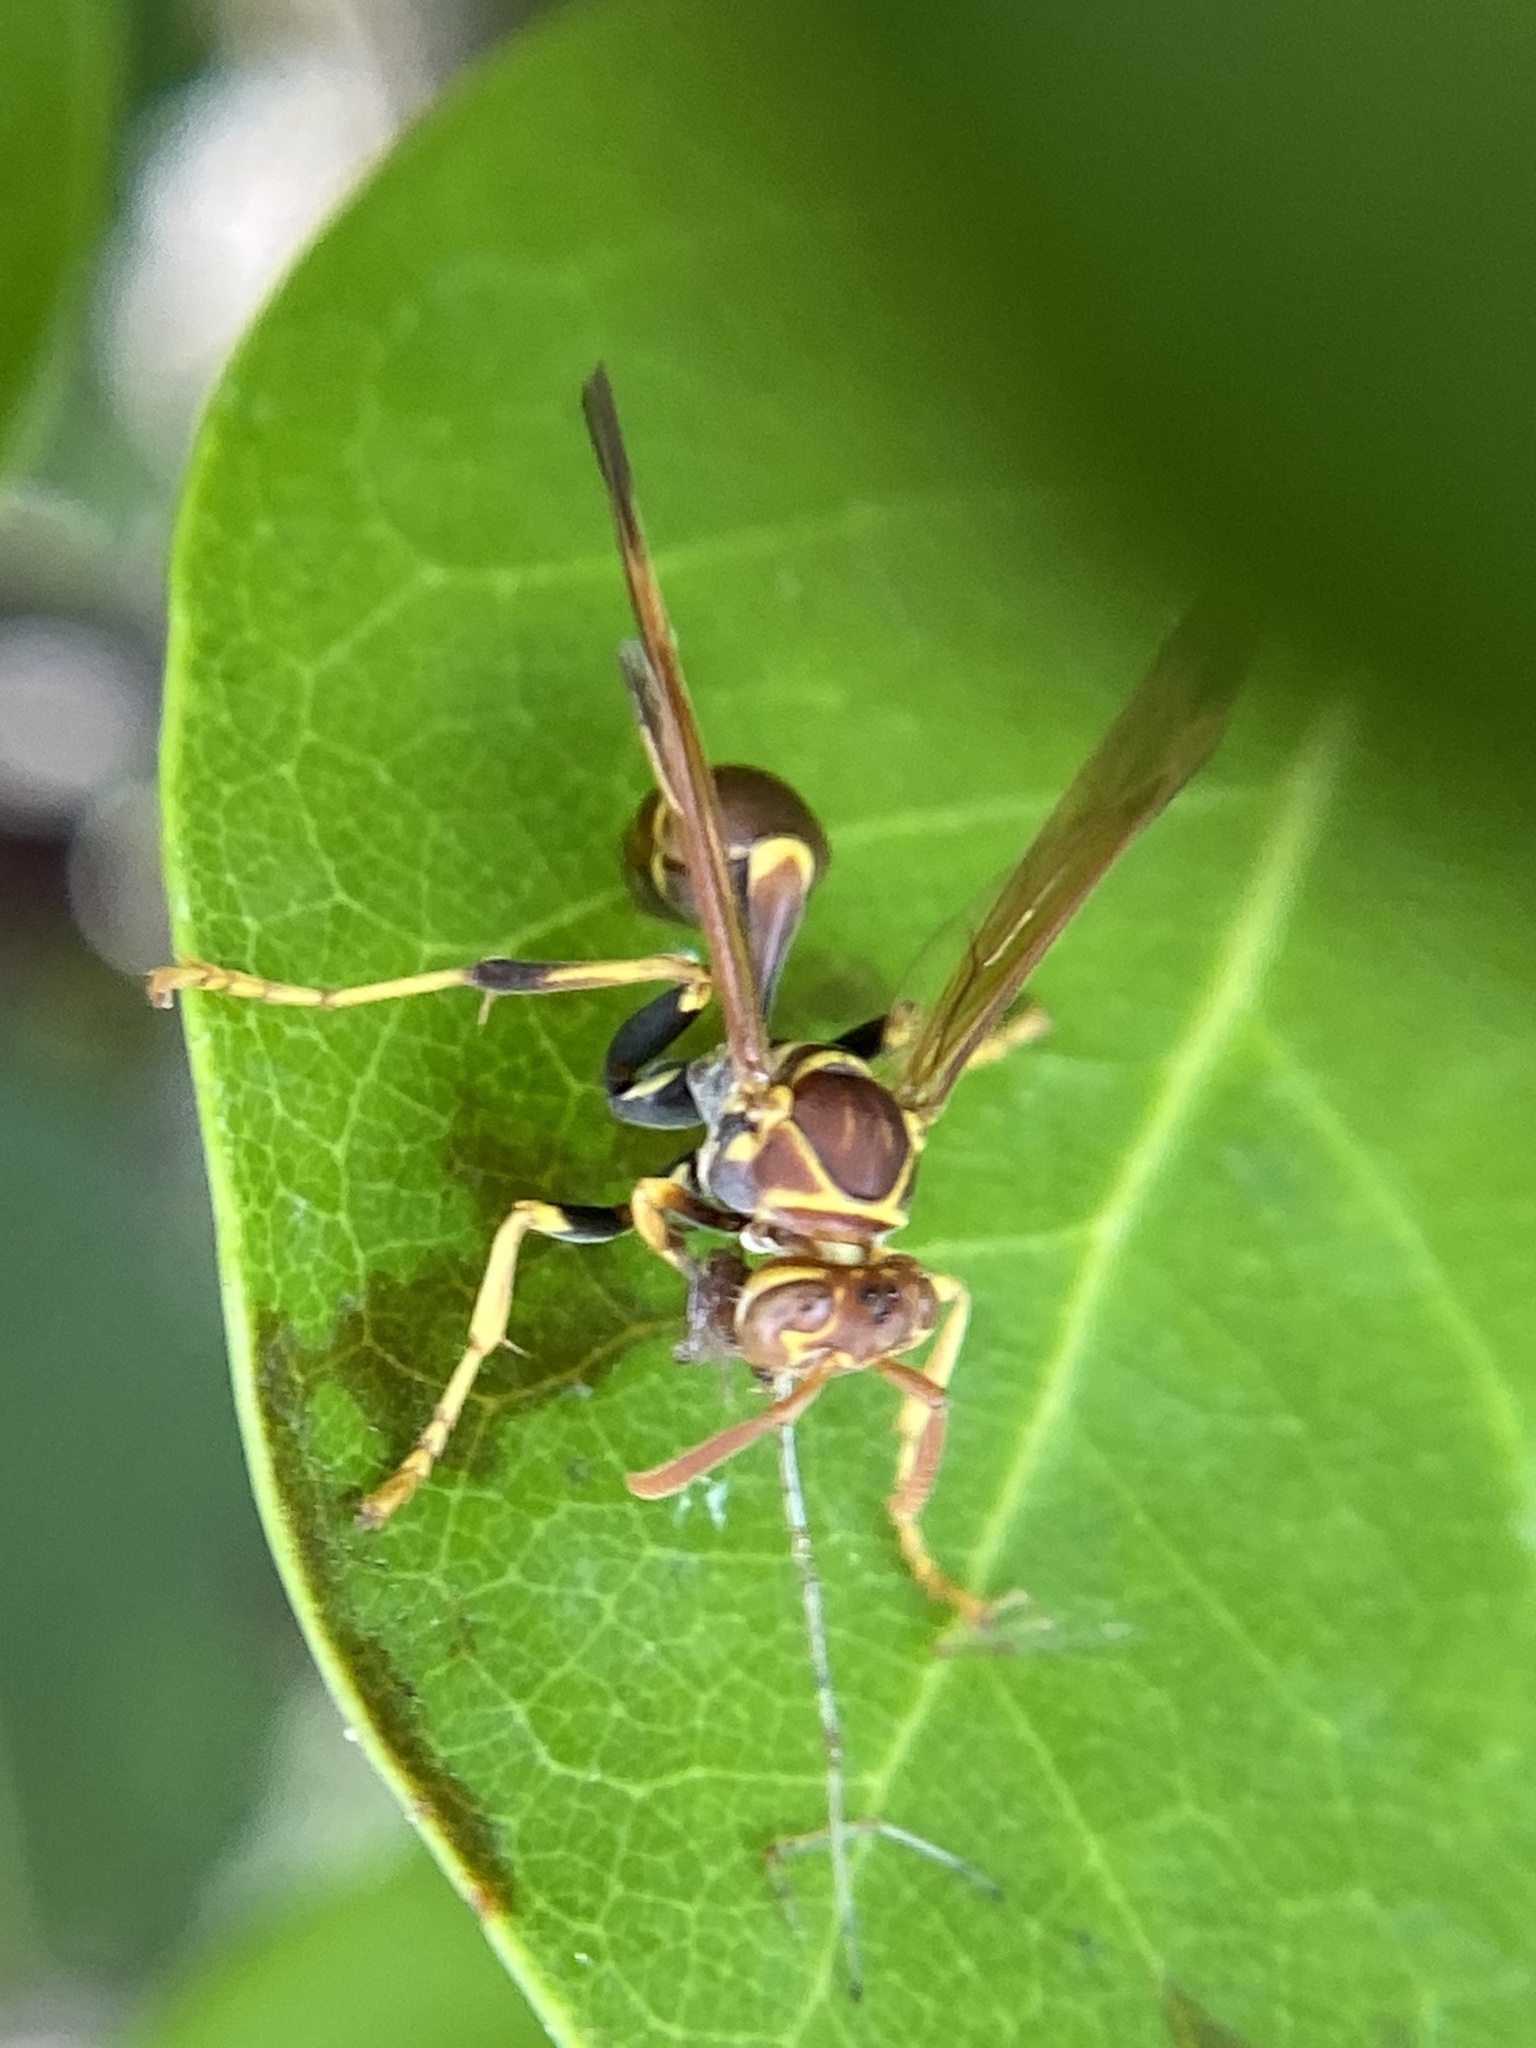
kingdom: Animalia
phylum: Arthropoda
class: Insecta
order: Hymenoptera
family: Vespidae
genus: Mischocyttarus
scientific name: Mischocyttarus mexicanus
